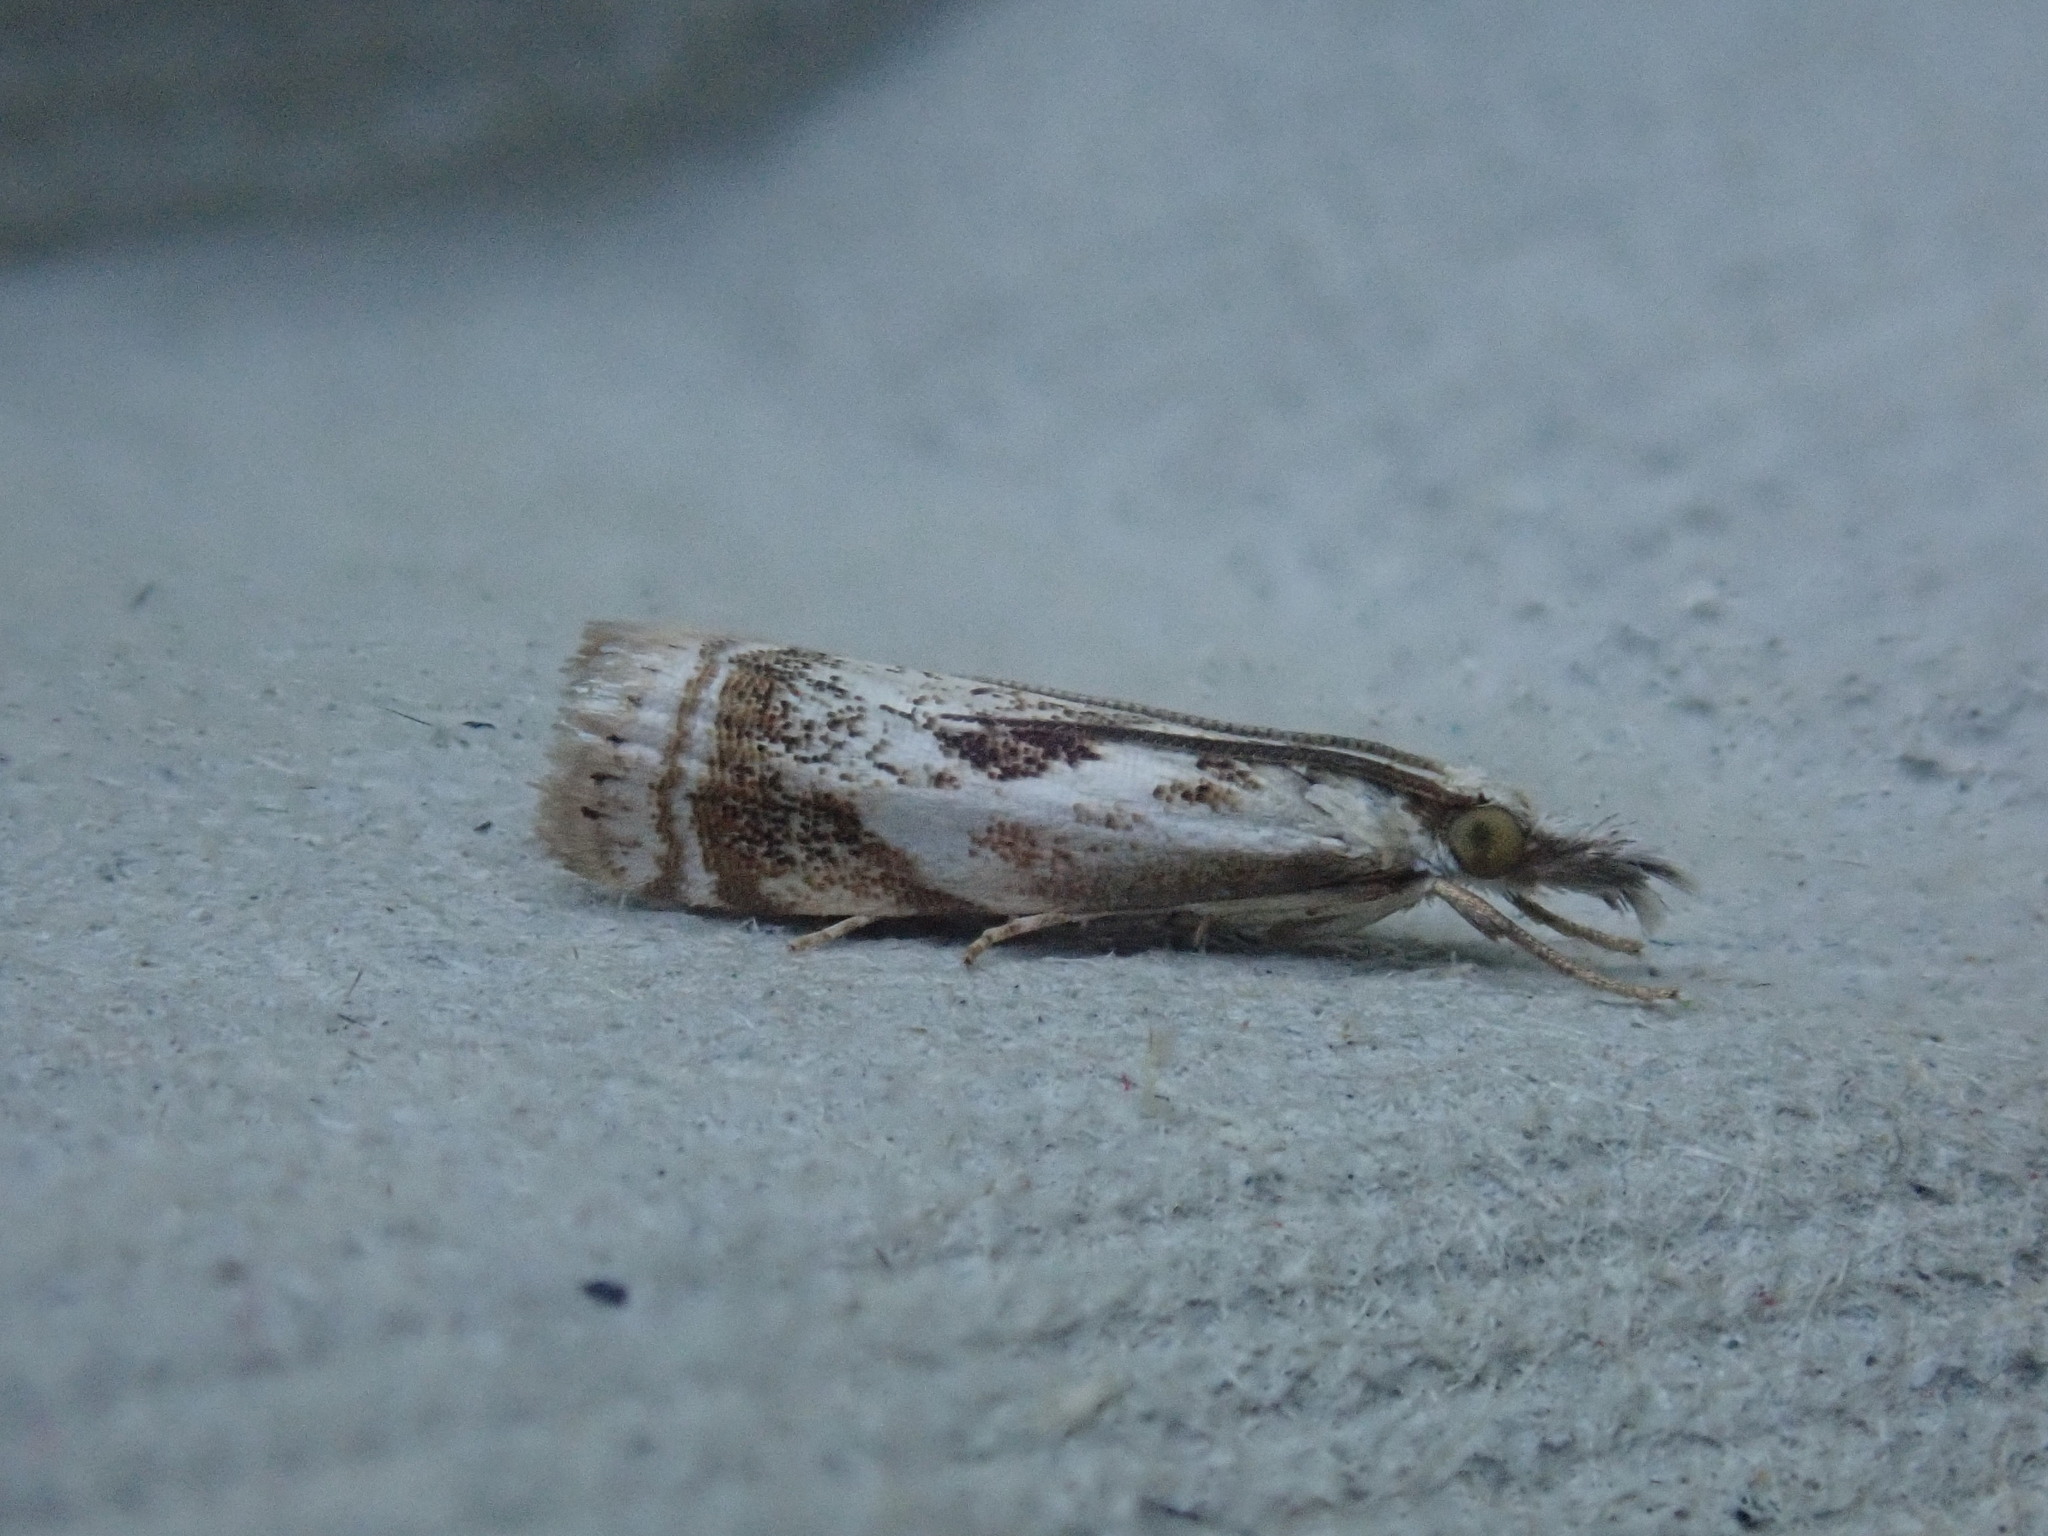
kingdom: Animalia
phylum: Arthropoda
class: Insecta
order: Lepidoptera
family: Crambidae
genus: Microcrambus
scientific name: Microcrambus elegans
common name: Elegant grass-veneer
